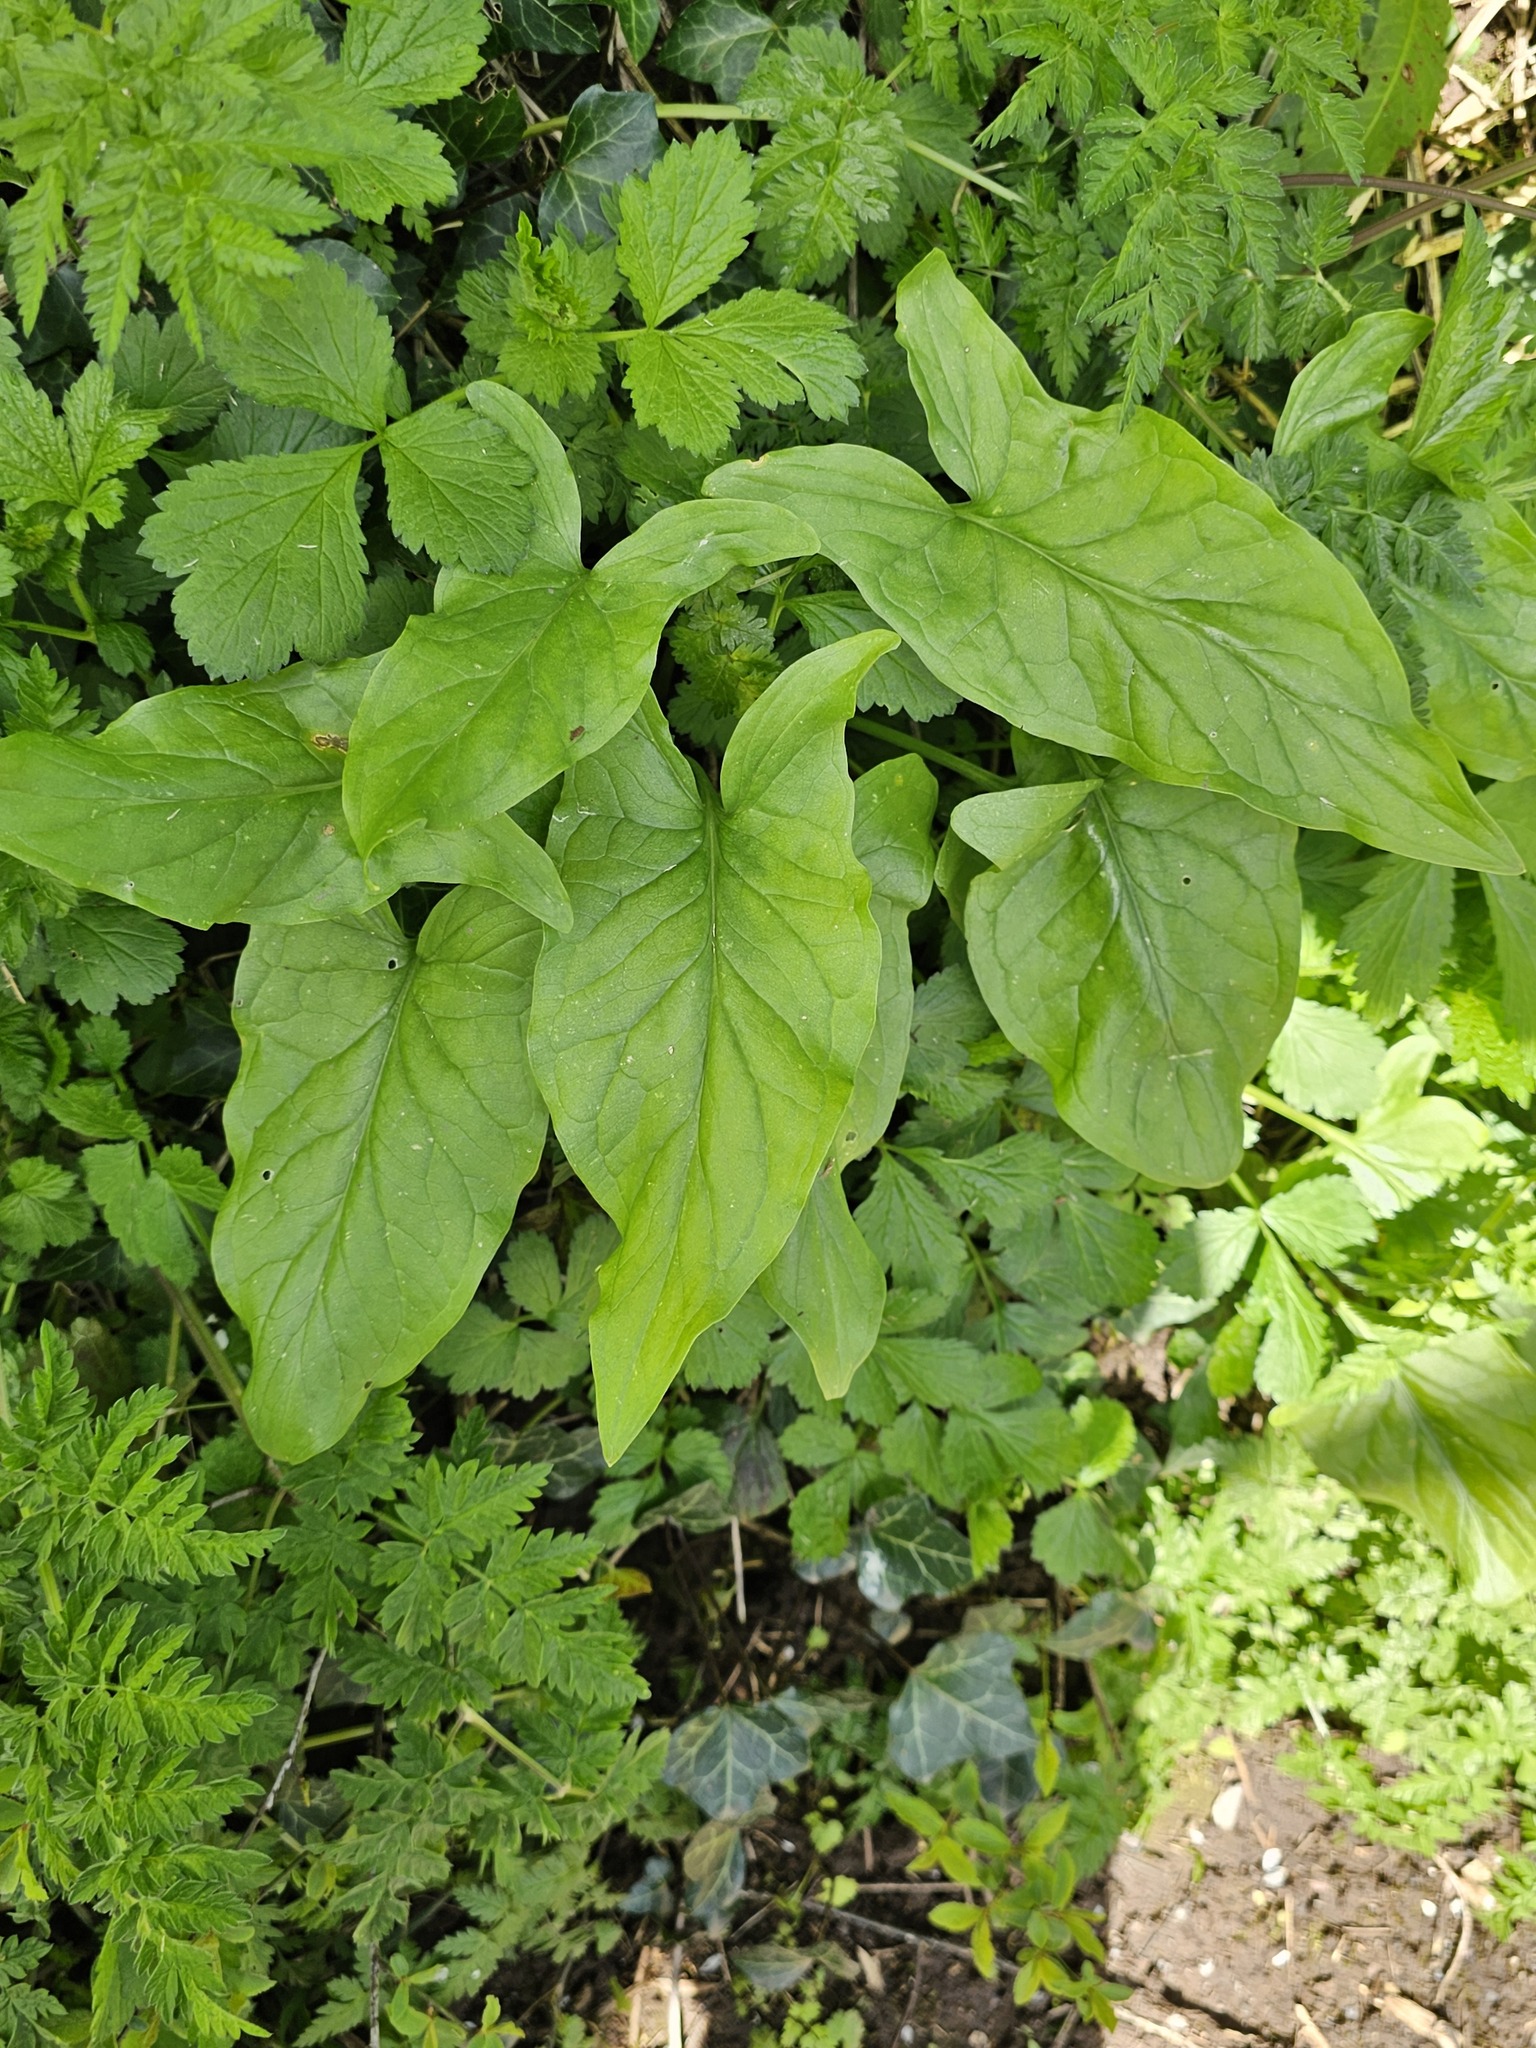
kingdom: Plantae
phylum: Tracheophyta
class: Liliopsida
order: Alismatales
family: Araceae
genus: Arum
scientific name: Arum maculatum
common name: Lords-and-ladies
